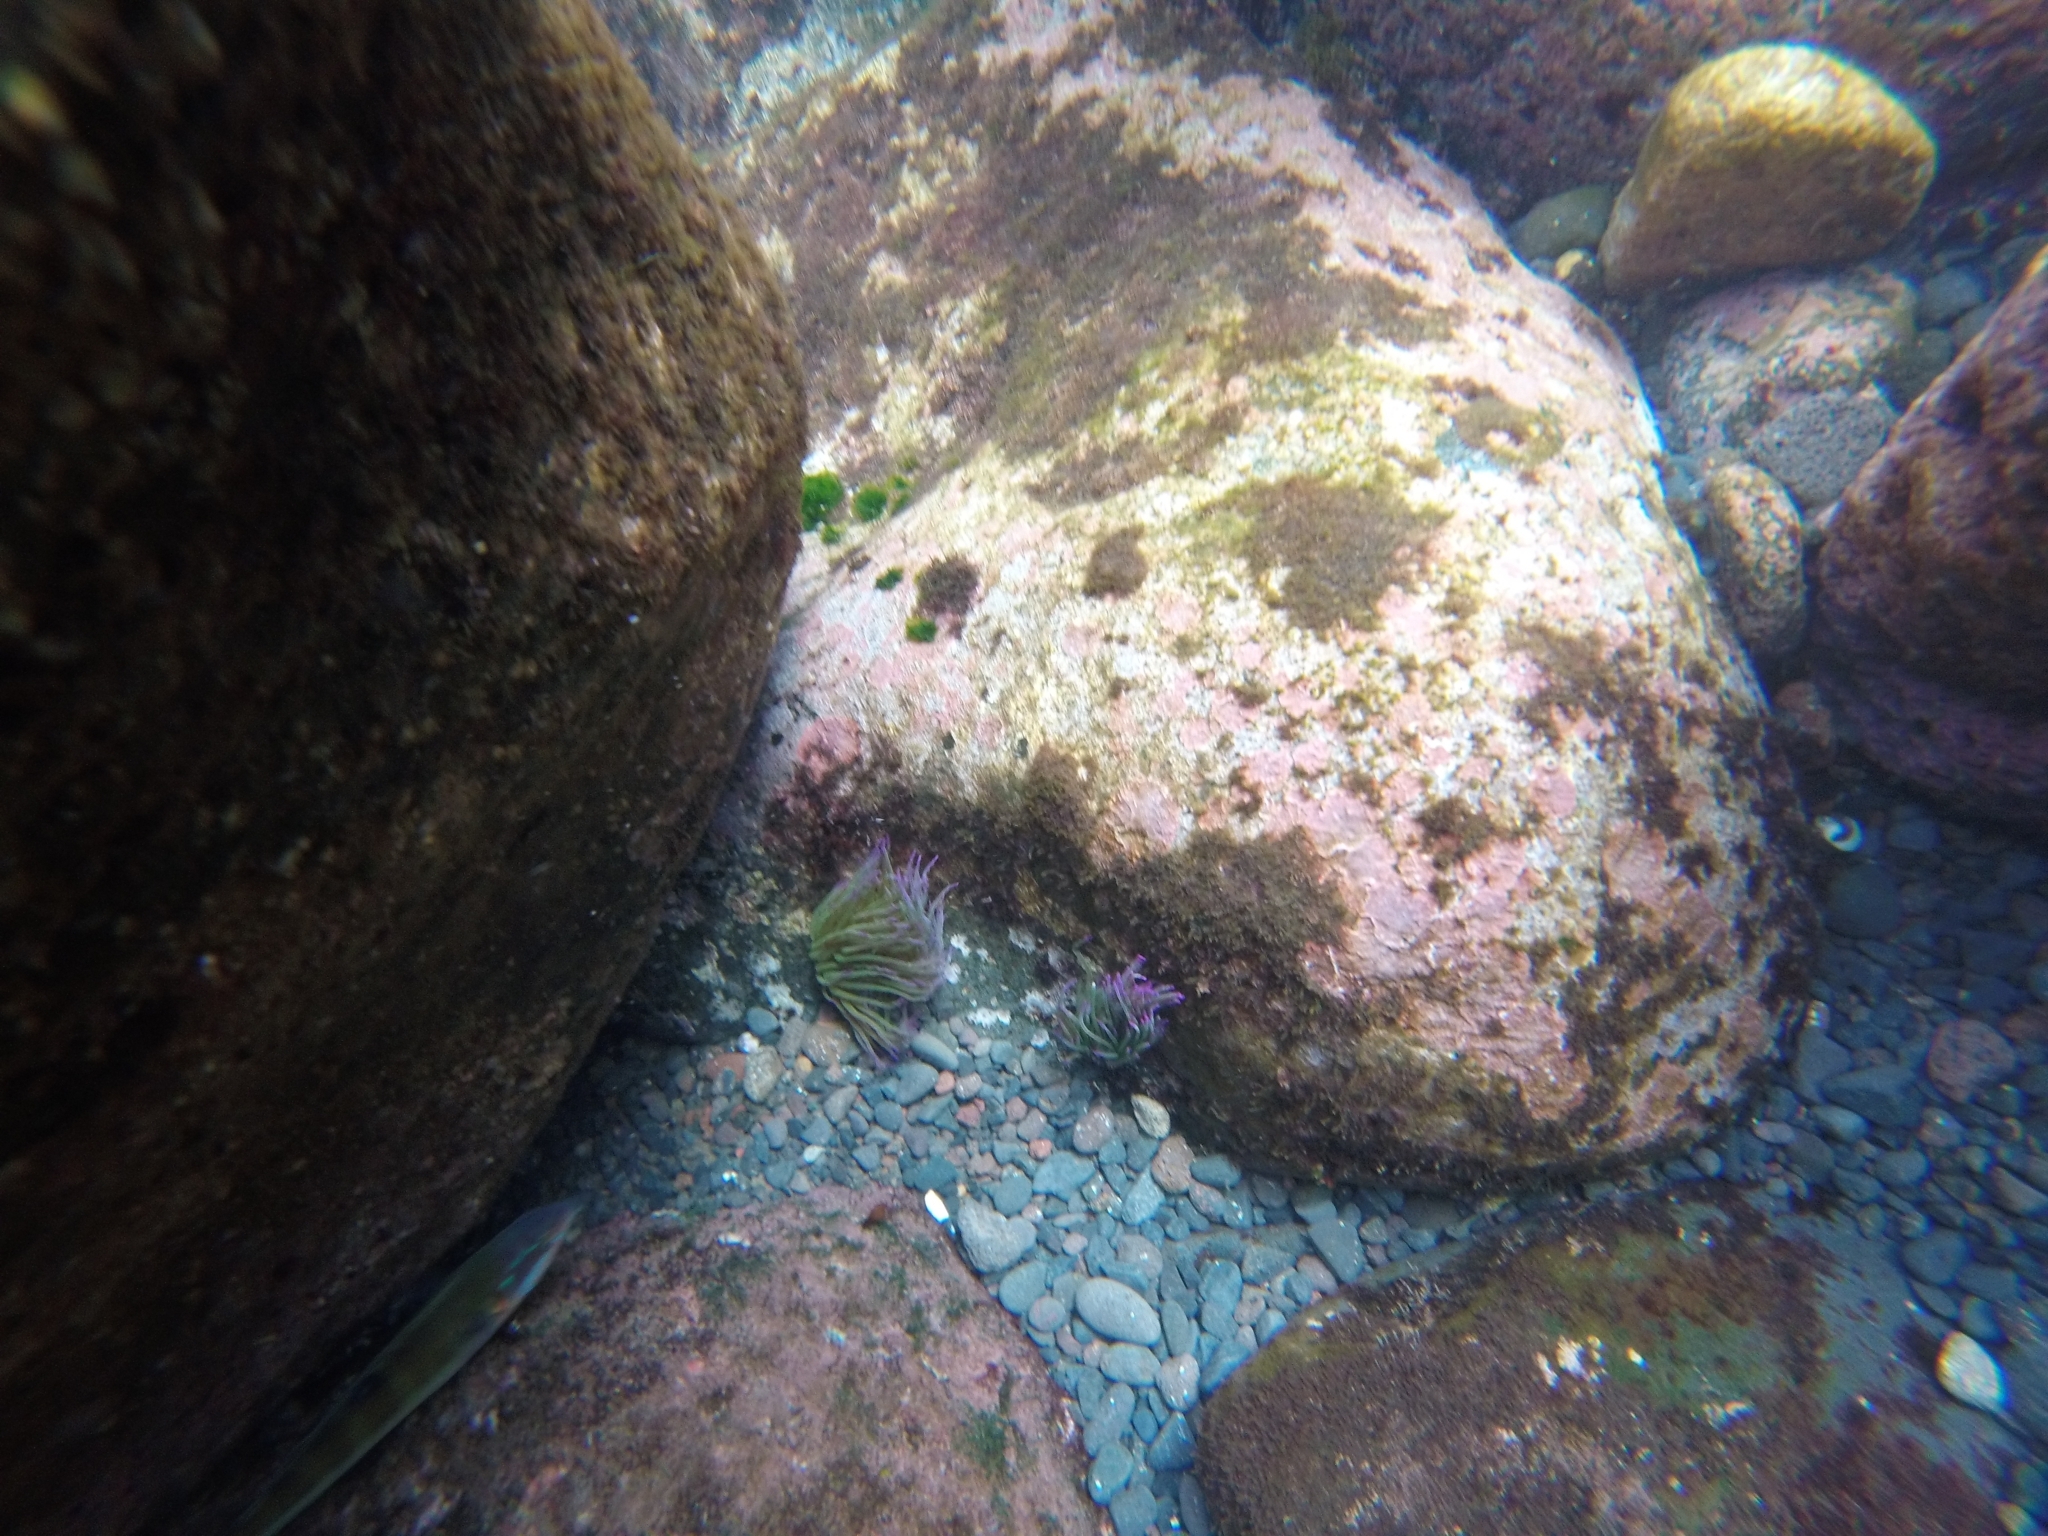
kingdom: Animalia
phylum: Cnidaria
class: Anthozoa
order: Actiniaria
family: Actiniidae
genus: Anemonia
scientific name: Anemonia viridis
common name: Snakelocks anemone
